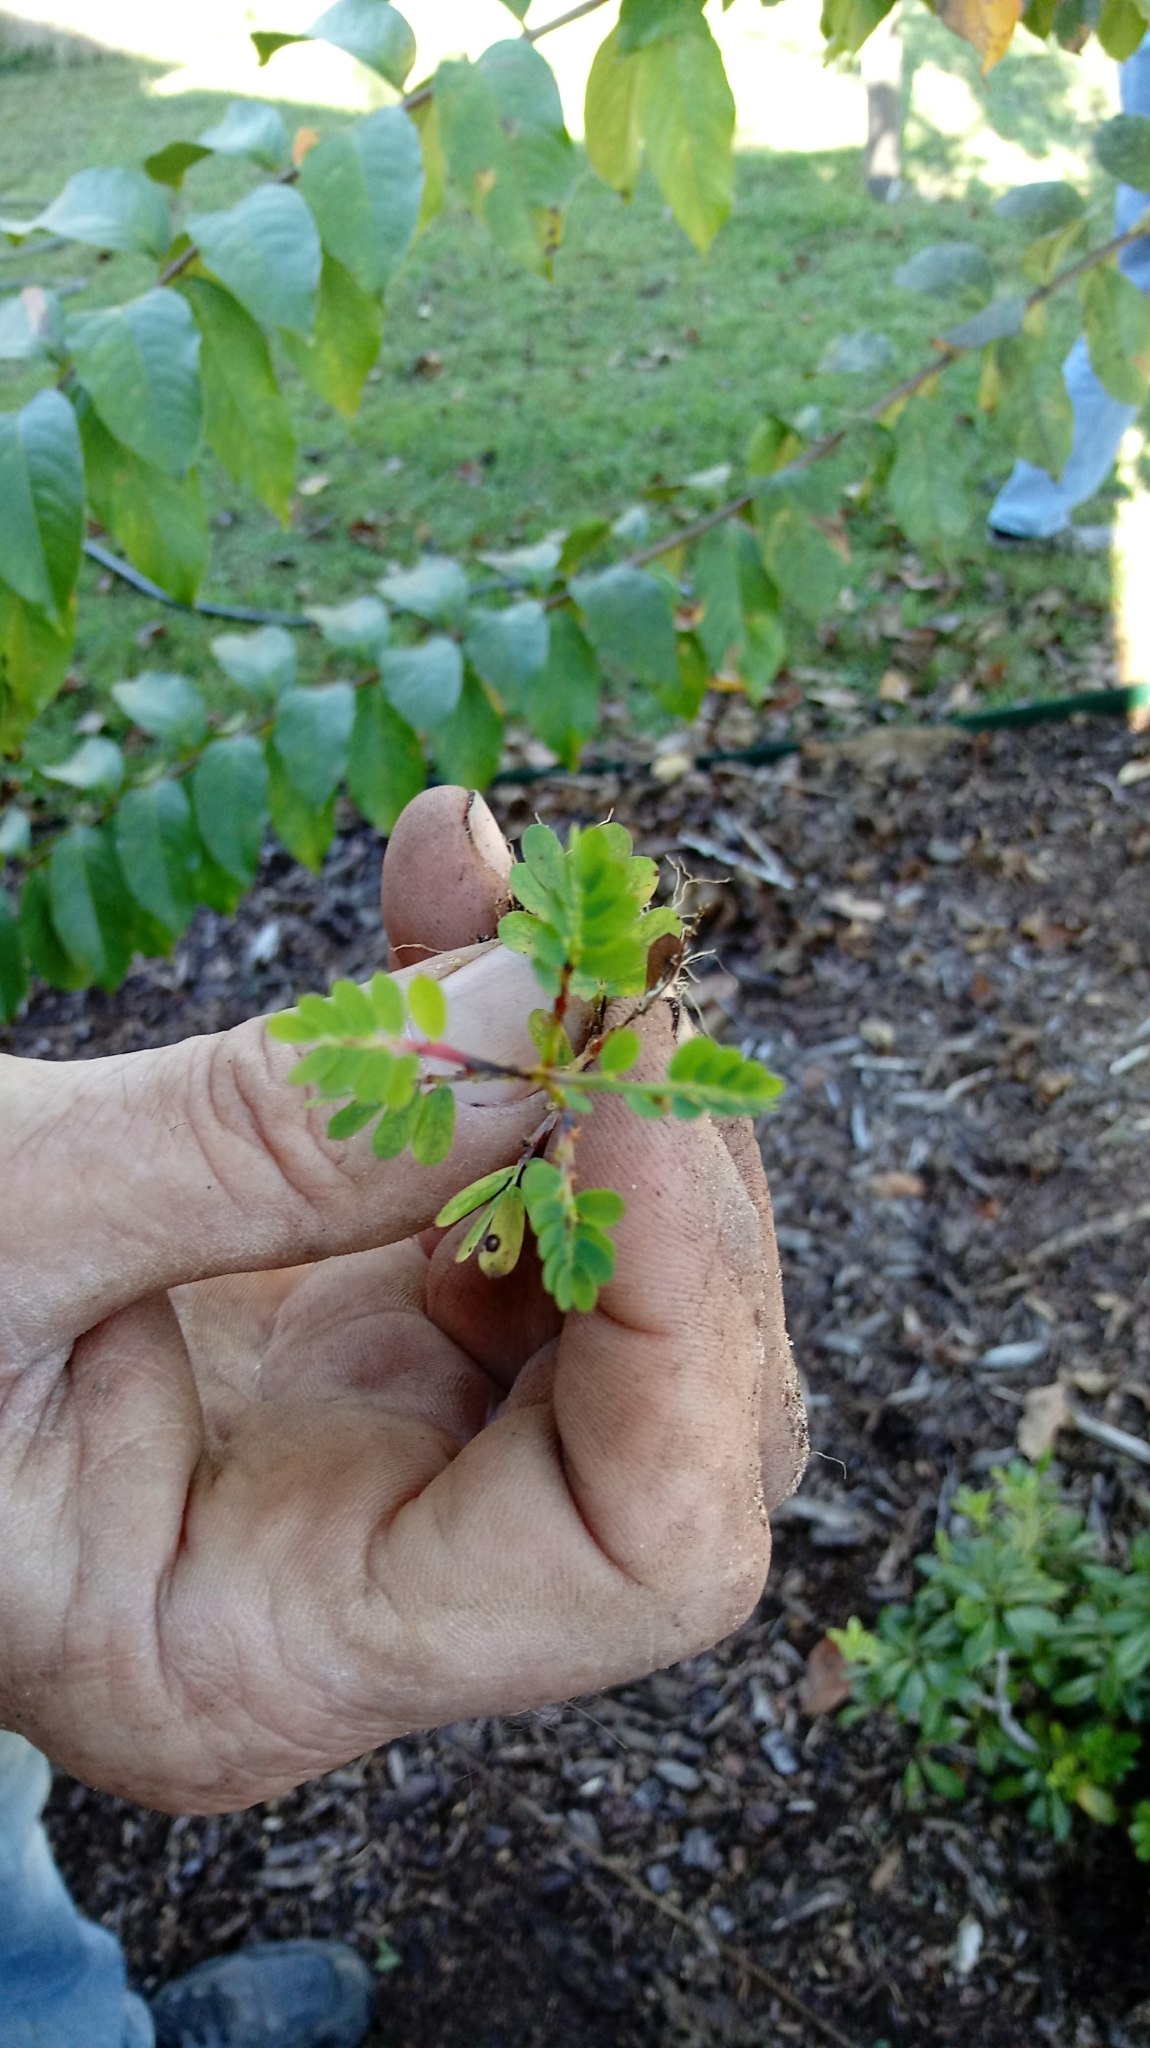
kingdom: Plantae
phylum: Tracheophyta
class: Magnoliopsida
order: Malpighiales
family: Phyllanthaceae
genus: Phyllanthus
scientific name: Phyllanthus urinaria
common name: Chamber bitter
